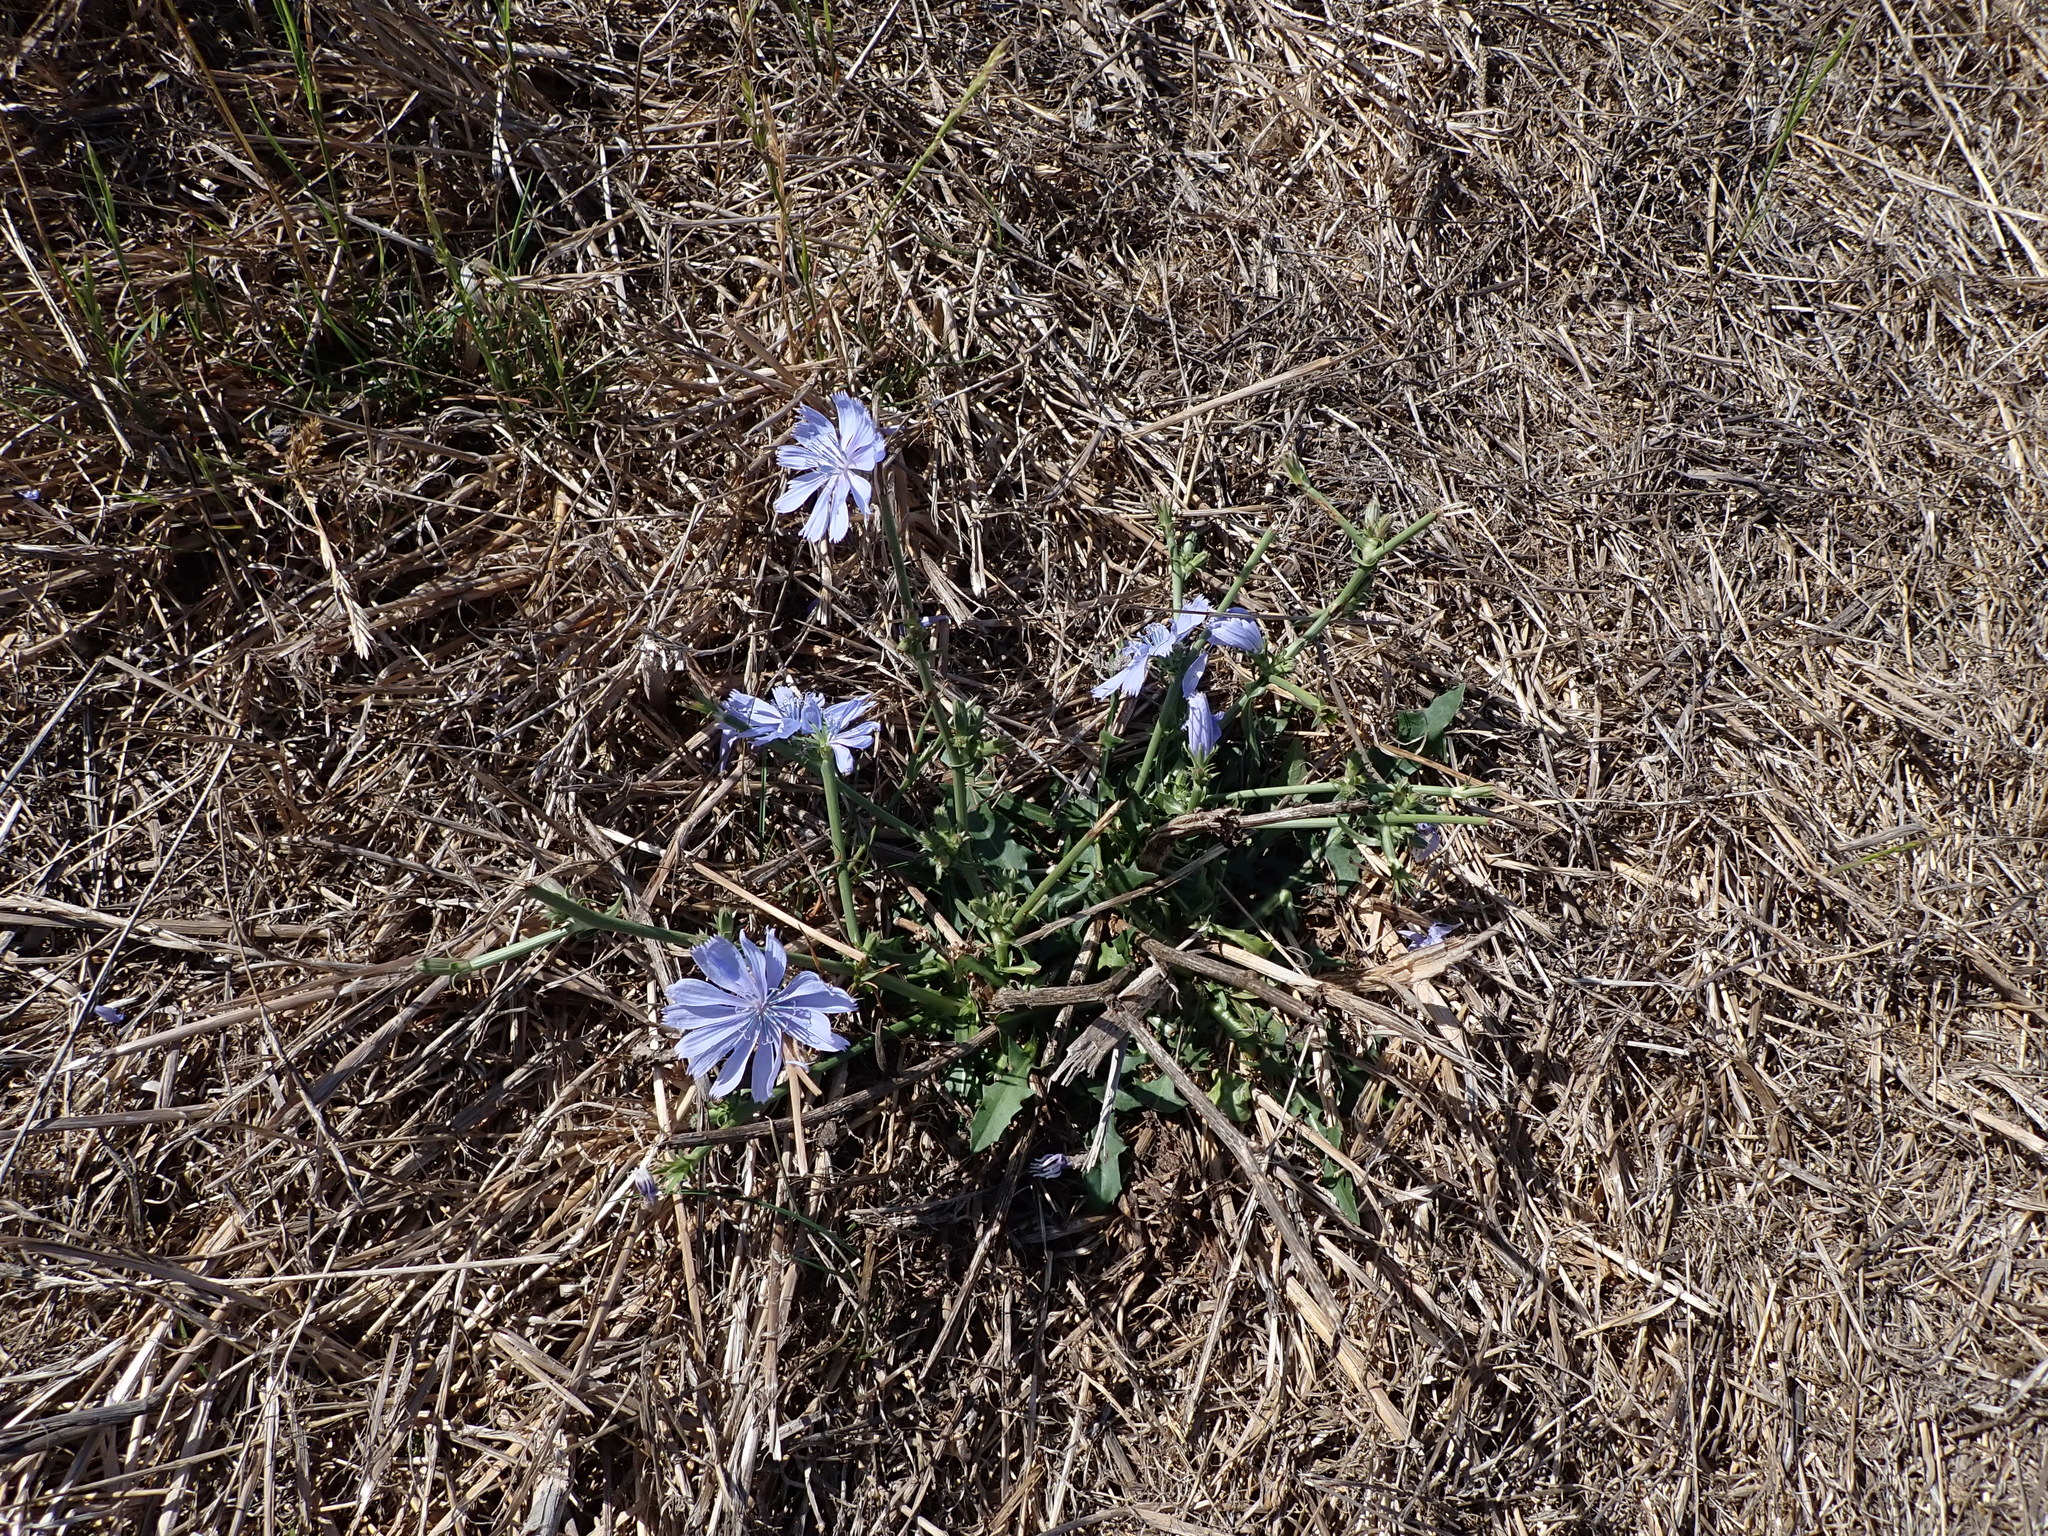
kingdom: Plantae
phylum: Tracheophyta
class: Magnoliopsida
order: Asterales
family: Asteraceae
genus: Cichorium
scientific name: Cichorium intybus
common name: Chicory
